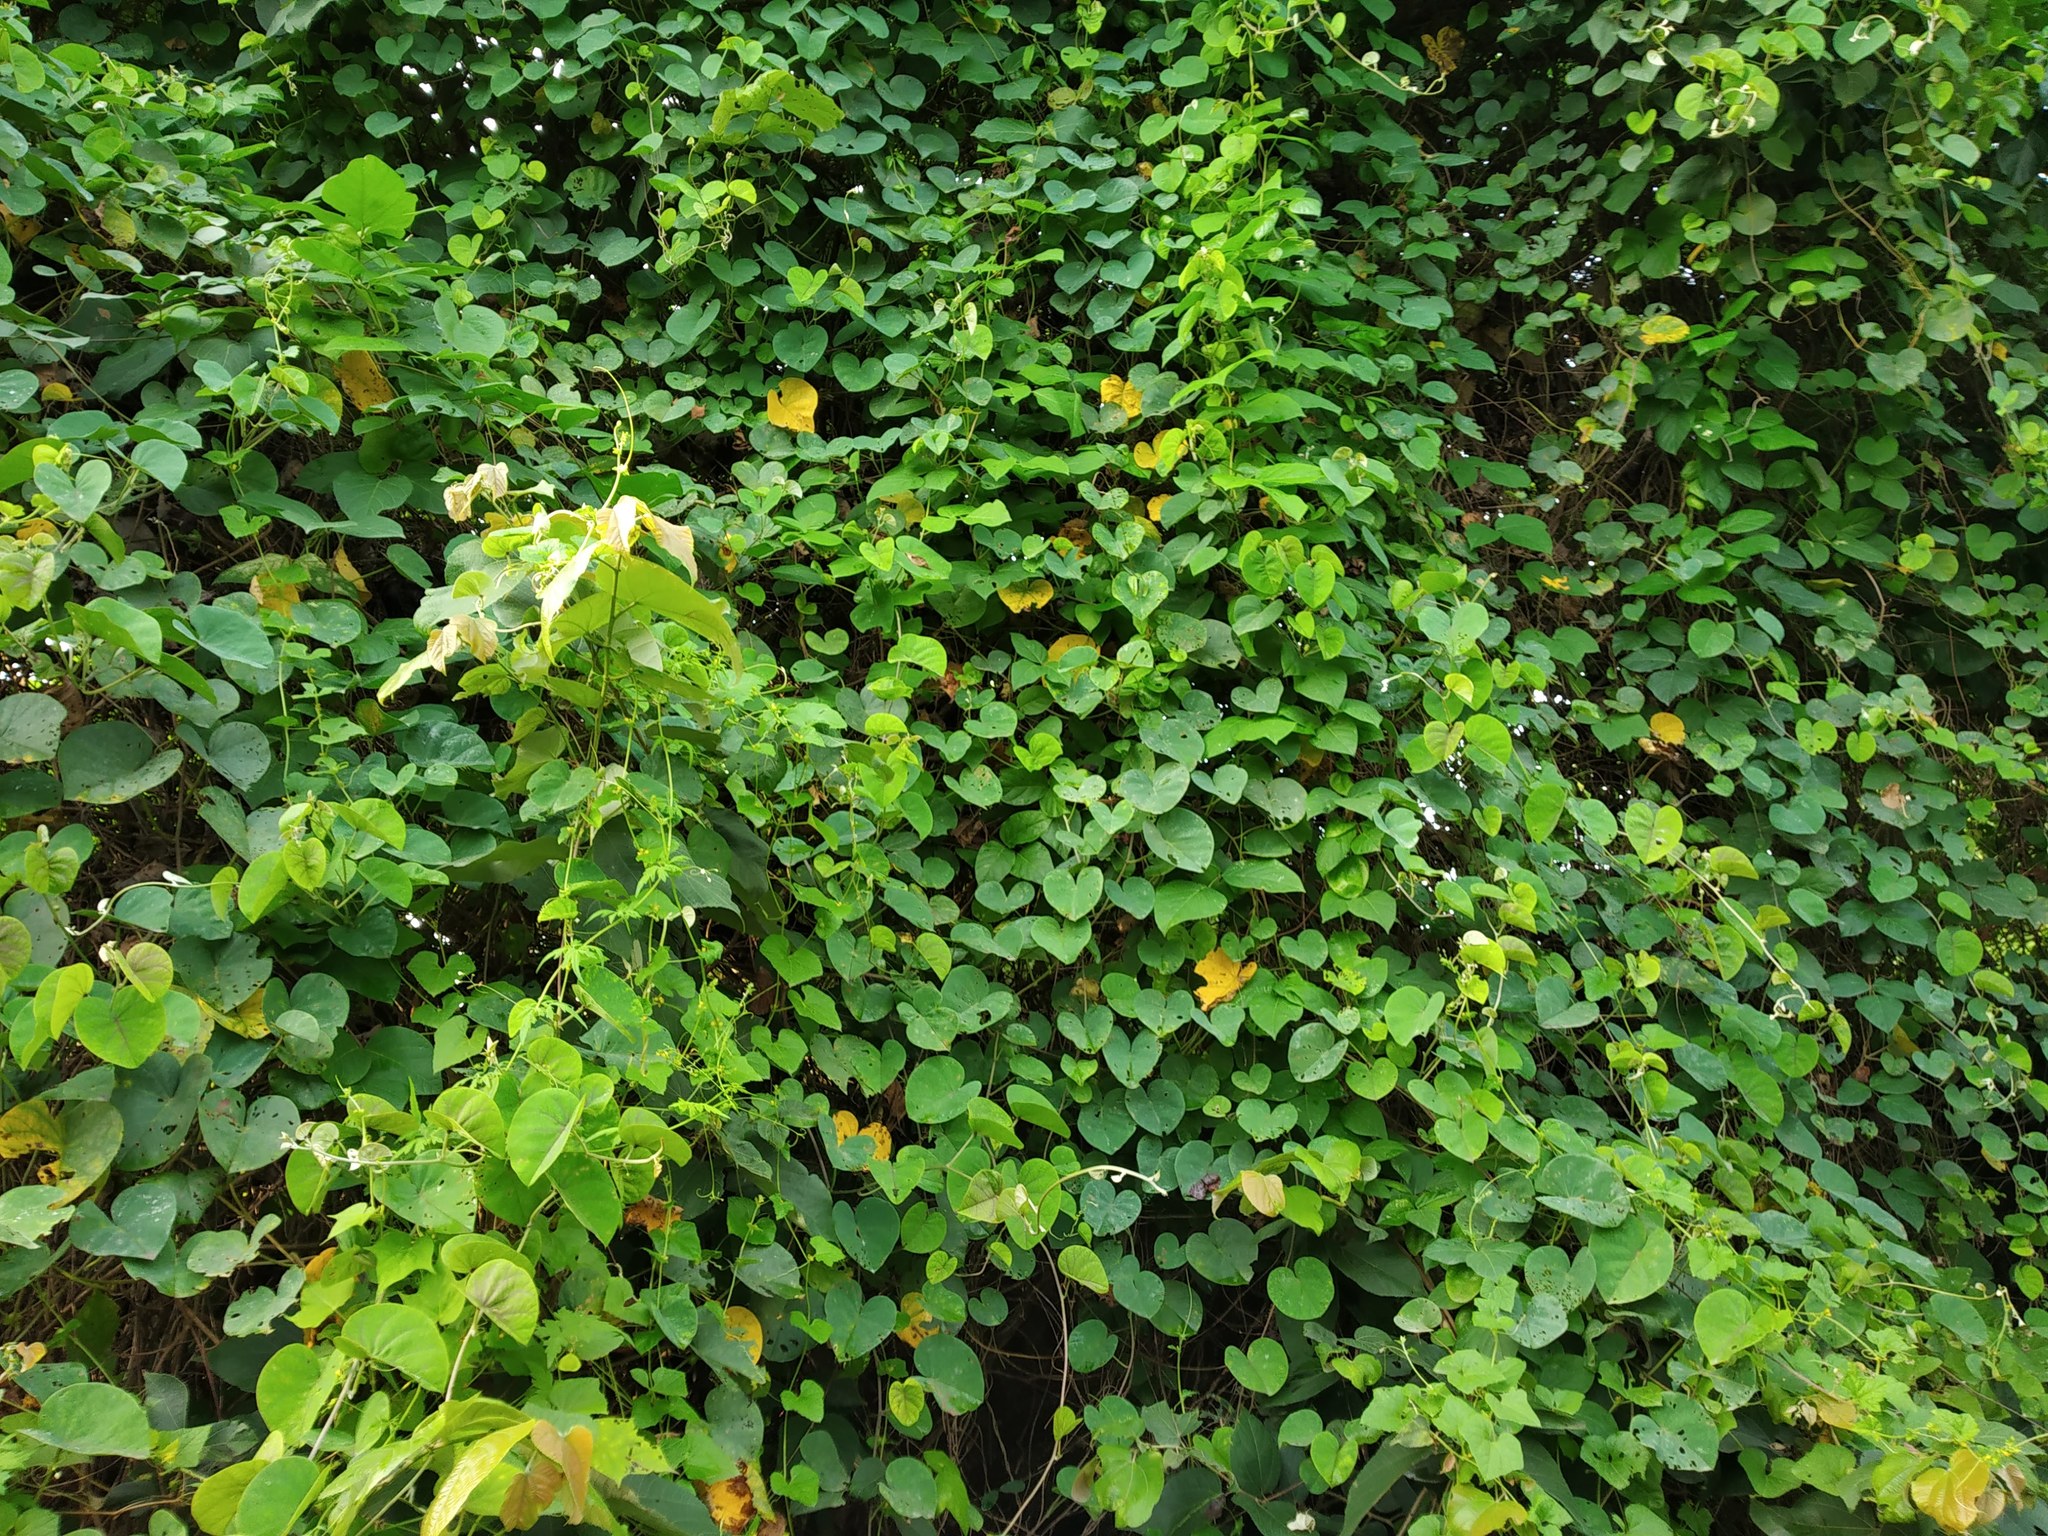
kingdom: Plantae
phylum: Tracheophyta
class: Magnoliopsida
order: Solanales
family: Convolvulaceae
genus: Rivea
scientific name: Rivea hypocrateriformis
